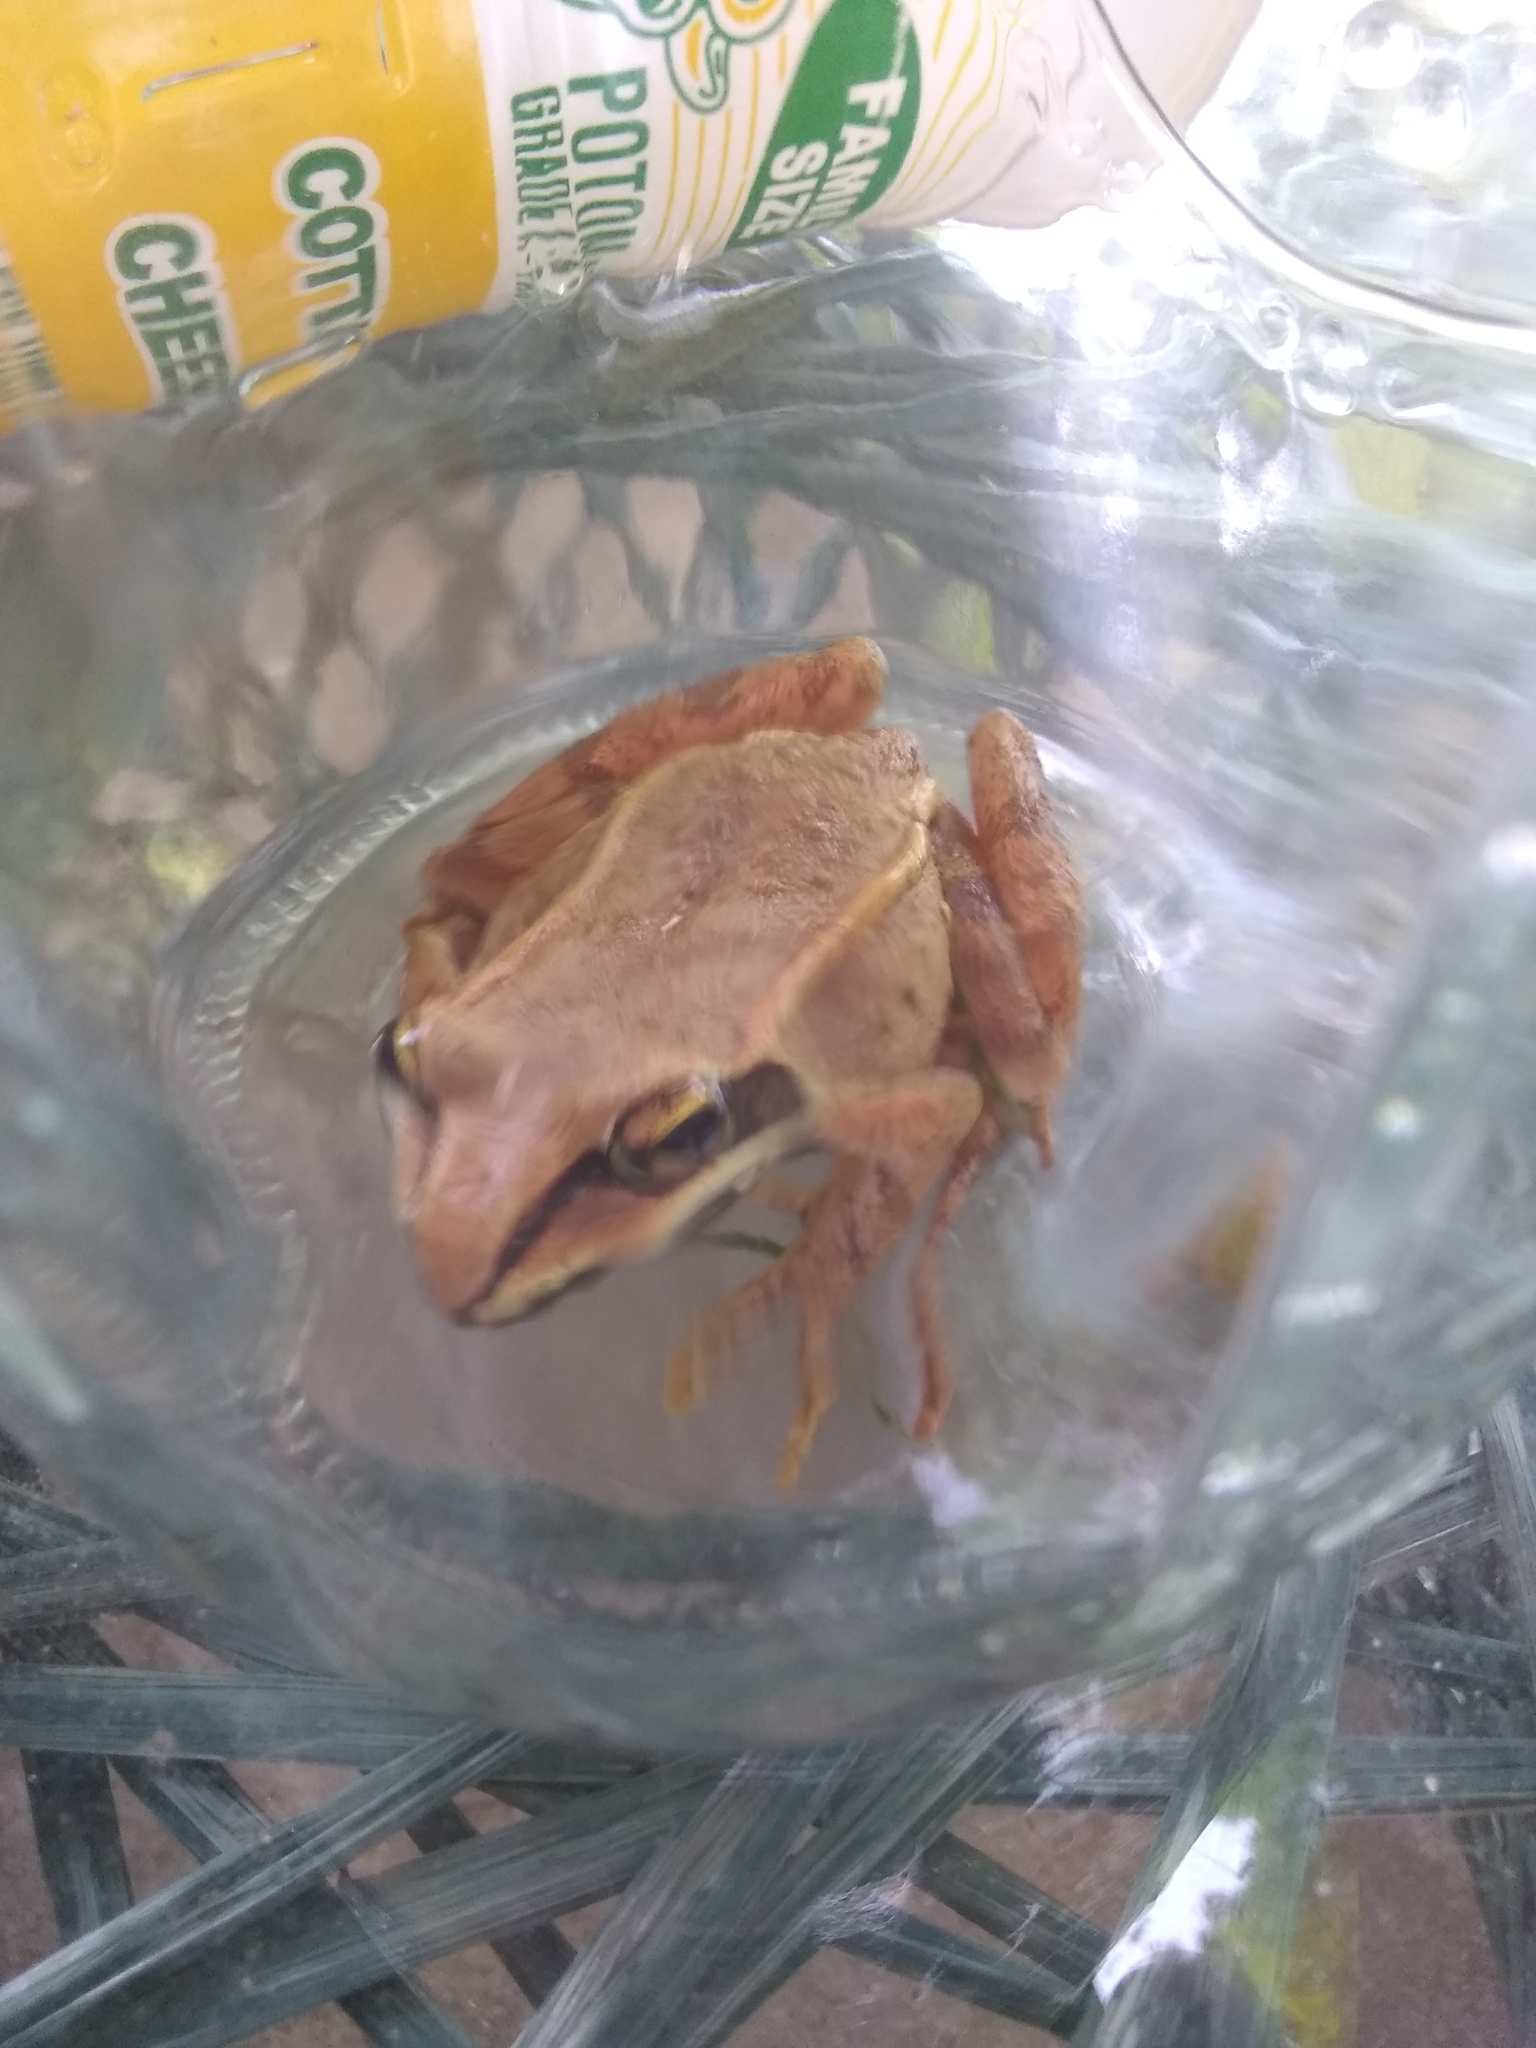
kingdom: Animalia
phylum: Chordata
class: Amphibia
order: Anura
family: Ranidae
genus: Lithobates
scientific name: Lithobates sylvaticus
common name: Wood frog
